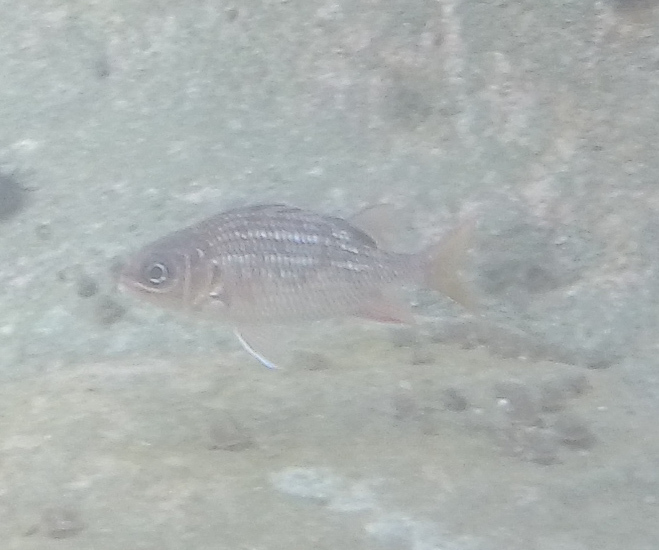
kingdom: Animalia
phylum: Chordata
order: Beryciformes
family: Holocentridae
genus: Sargocentron
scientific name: Sargocentron suborbitale
